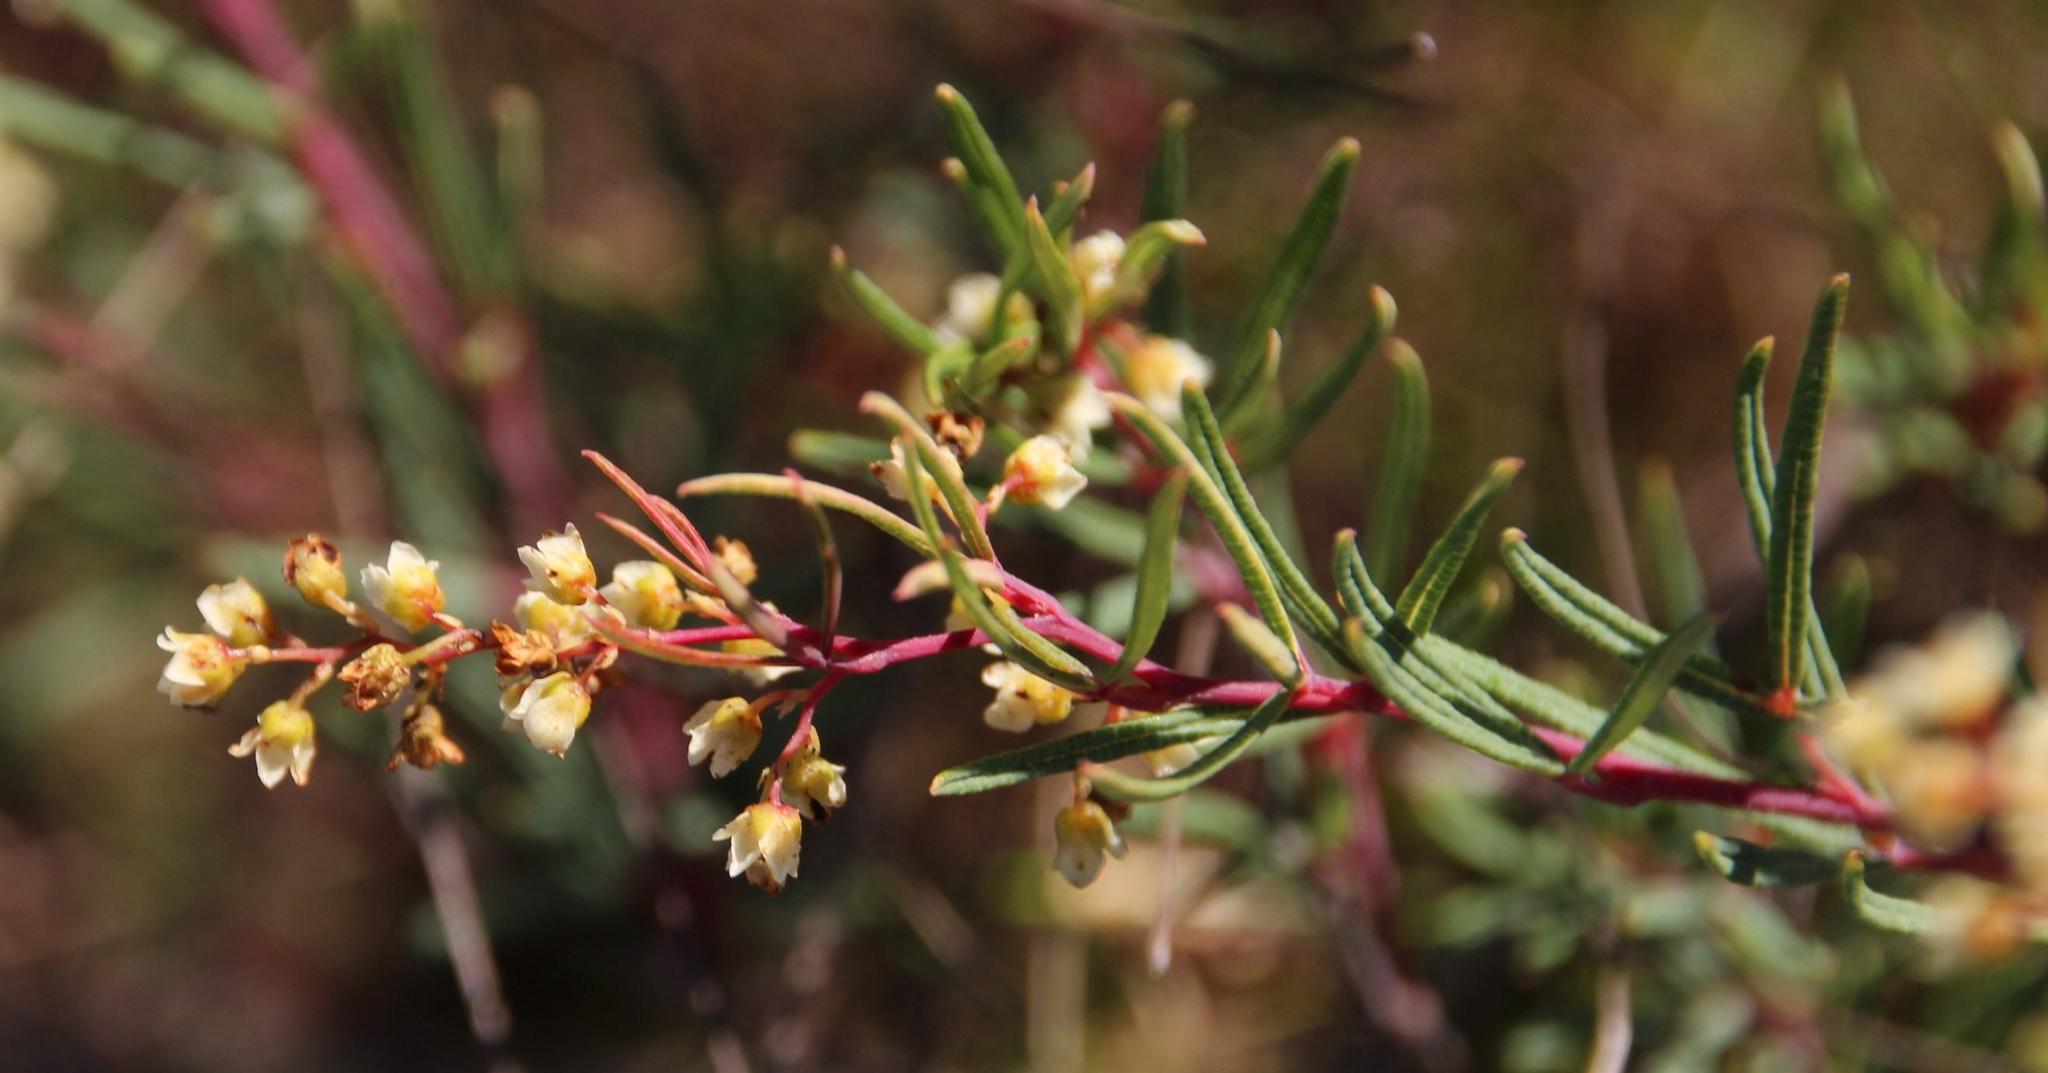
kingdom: Plantae
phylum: Tracheophyta
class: Magnoliopsida
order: Sapindales
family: Anacardiaceae
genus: Searsia
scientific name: Searsia rosmarinifolia
